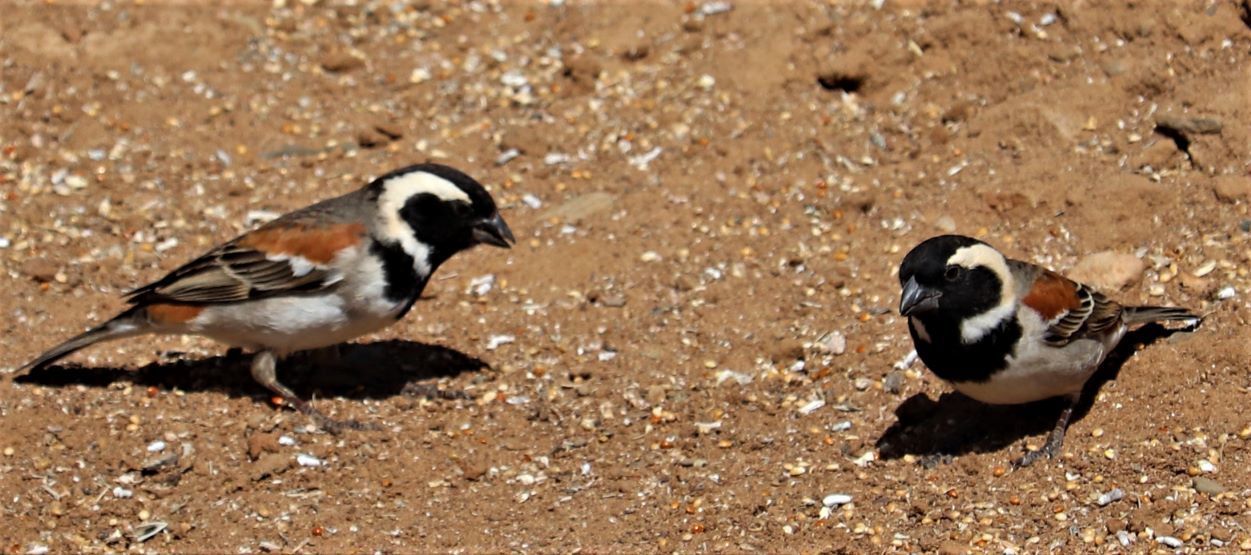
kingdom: Animalia
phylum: Chordata
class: Aves
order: Passeriformes
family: Passeridae
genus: Passer
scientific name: Passer melanurus
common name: Cape sparrow
